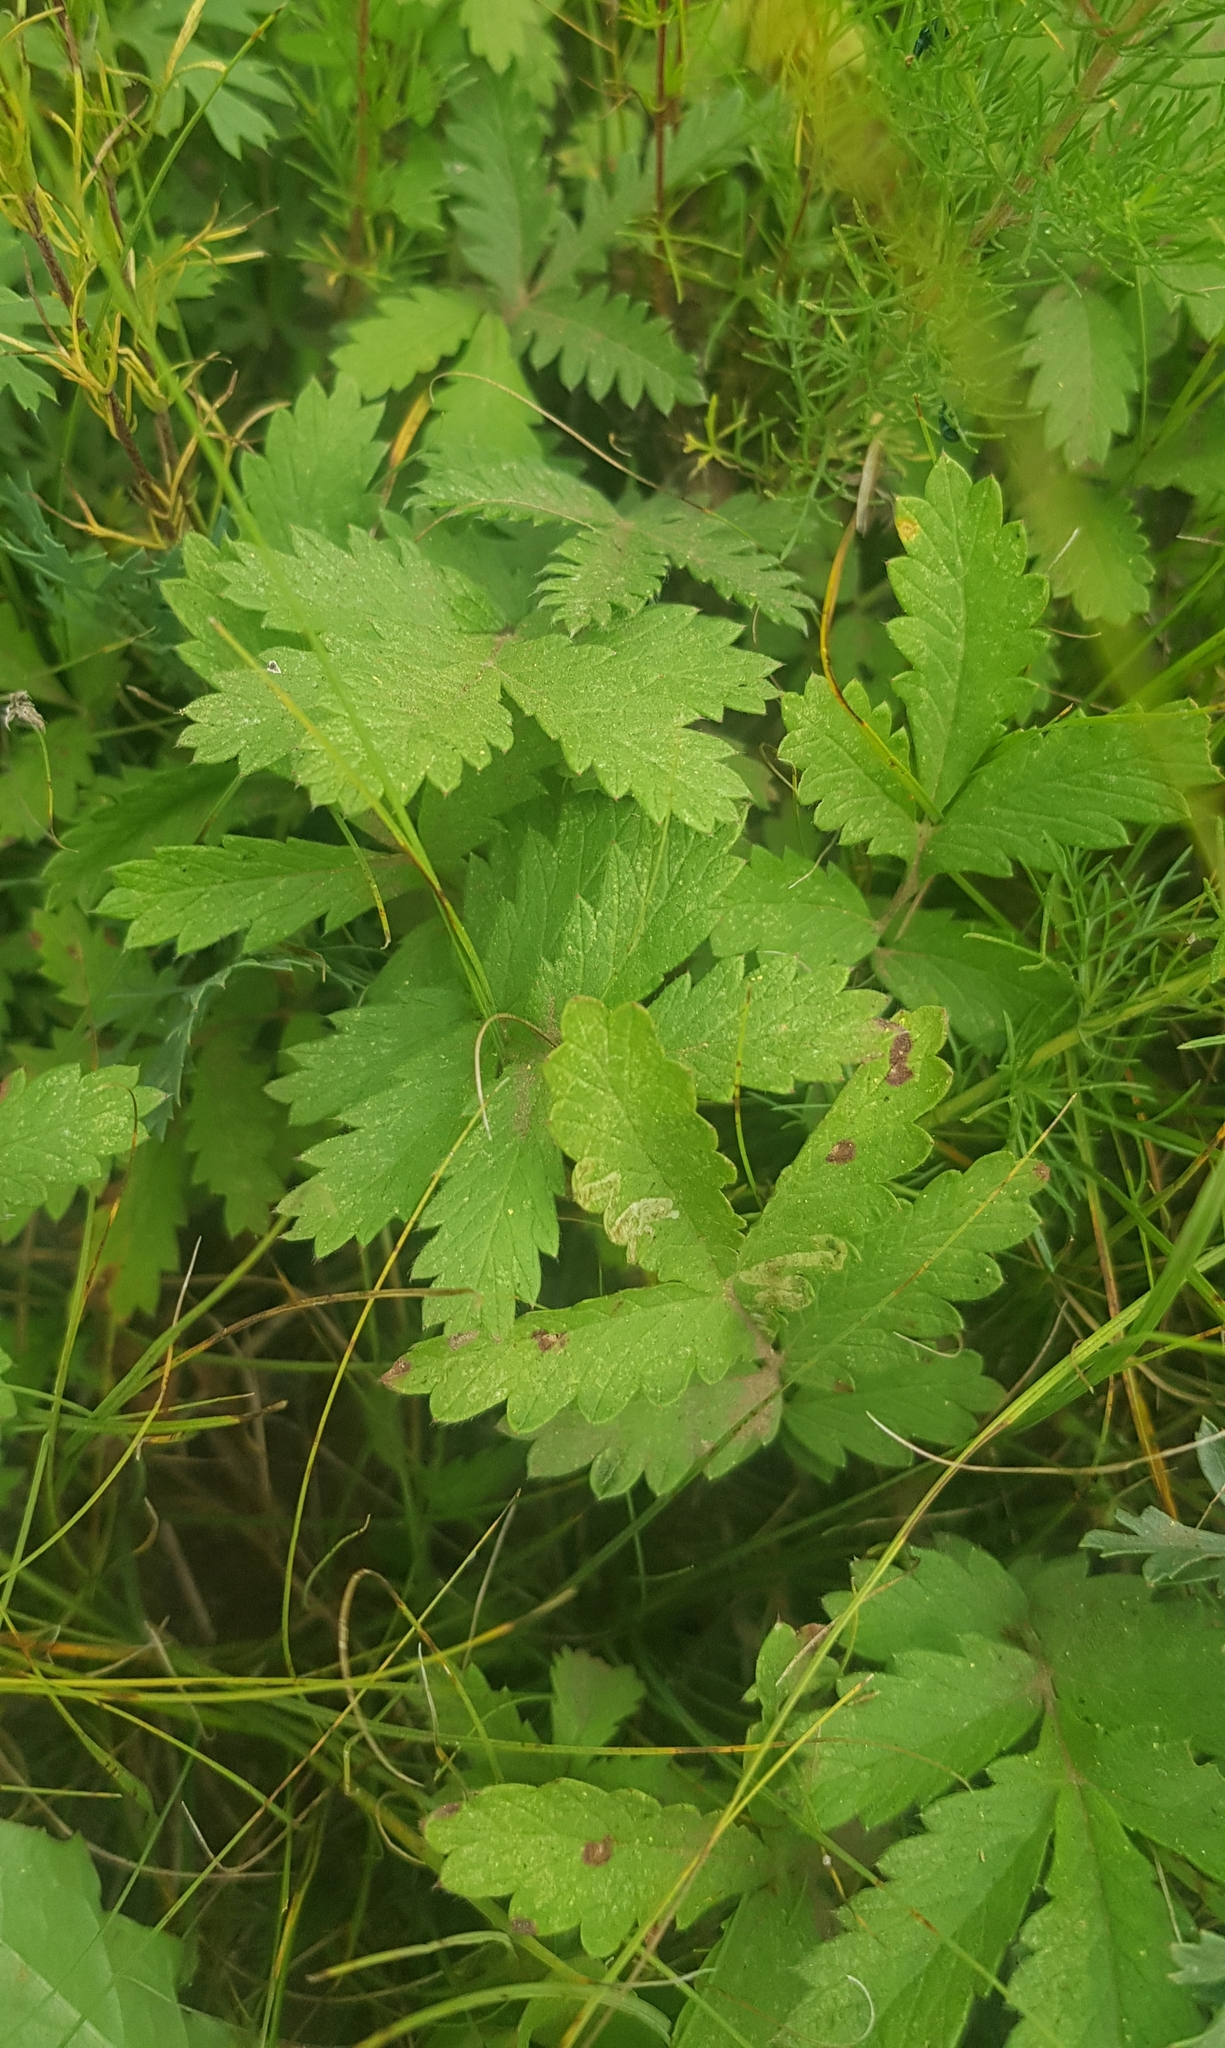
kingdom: Plantae
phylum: Tracheophyta
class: Magnoliopsida
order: Rosales
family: Rosaceae
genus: Potentilla
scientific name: Potentilla tanacetifolia
